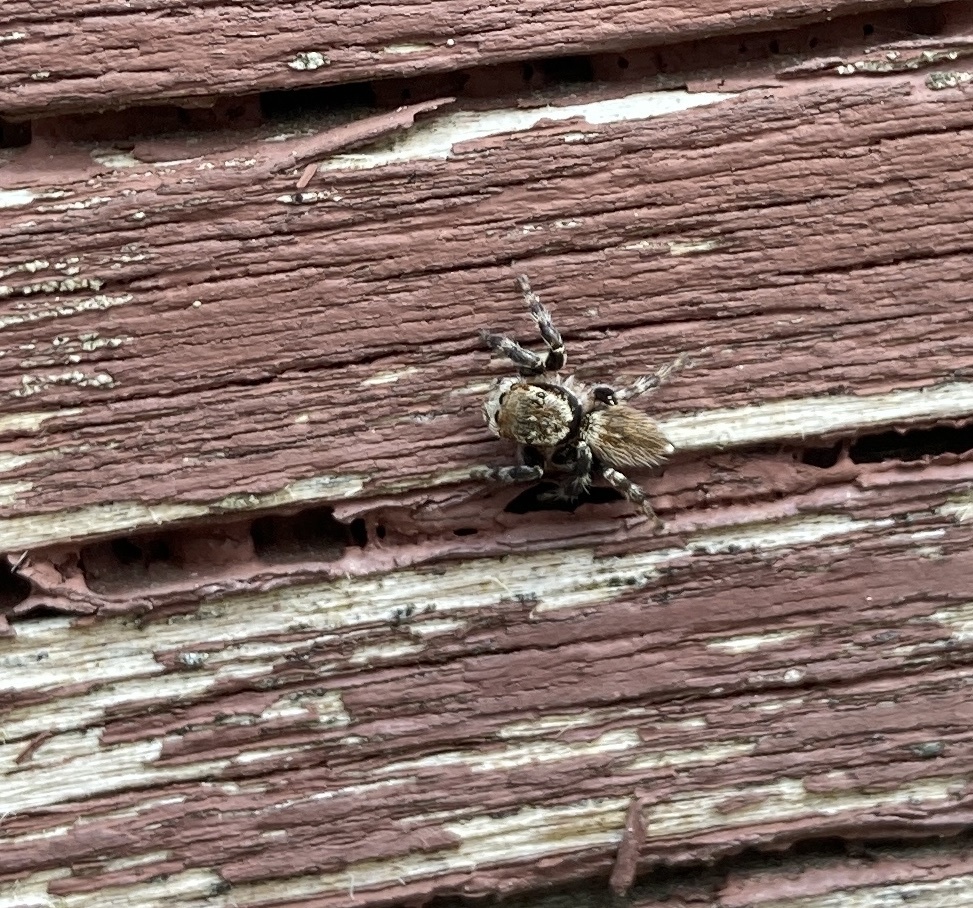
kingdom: Animalia
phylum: Arthropoda
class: Arachnida
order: Araneae
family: Salticidae
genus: Maratus
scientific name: Maratus griseus
